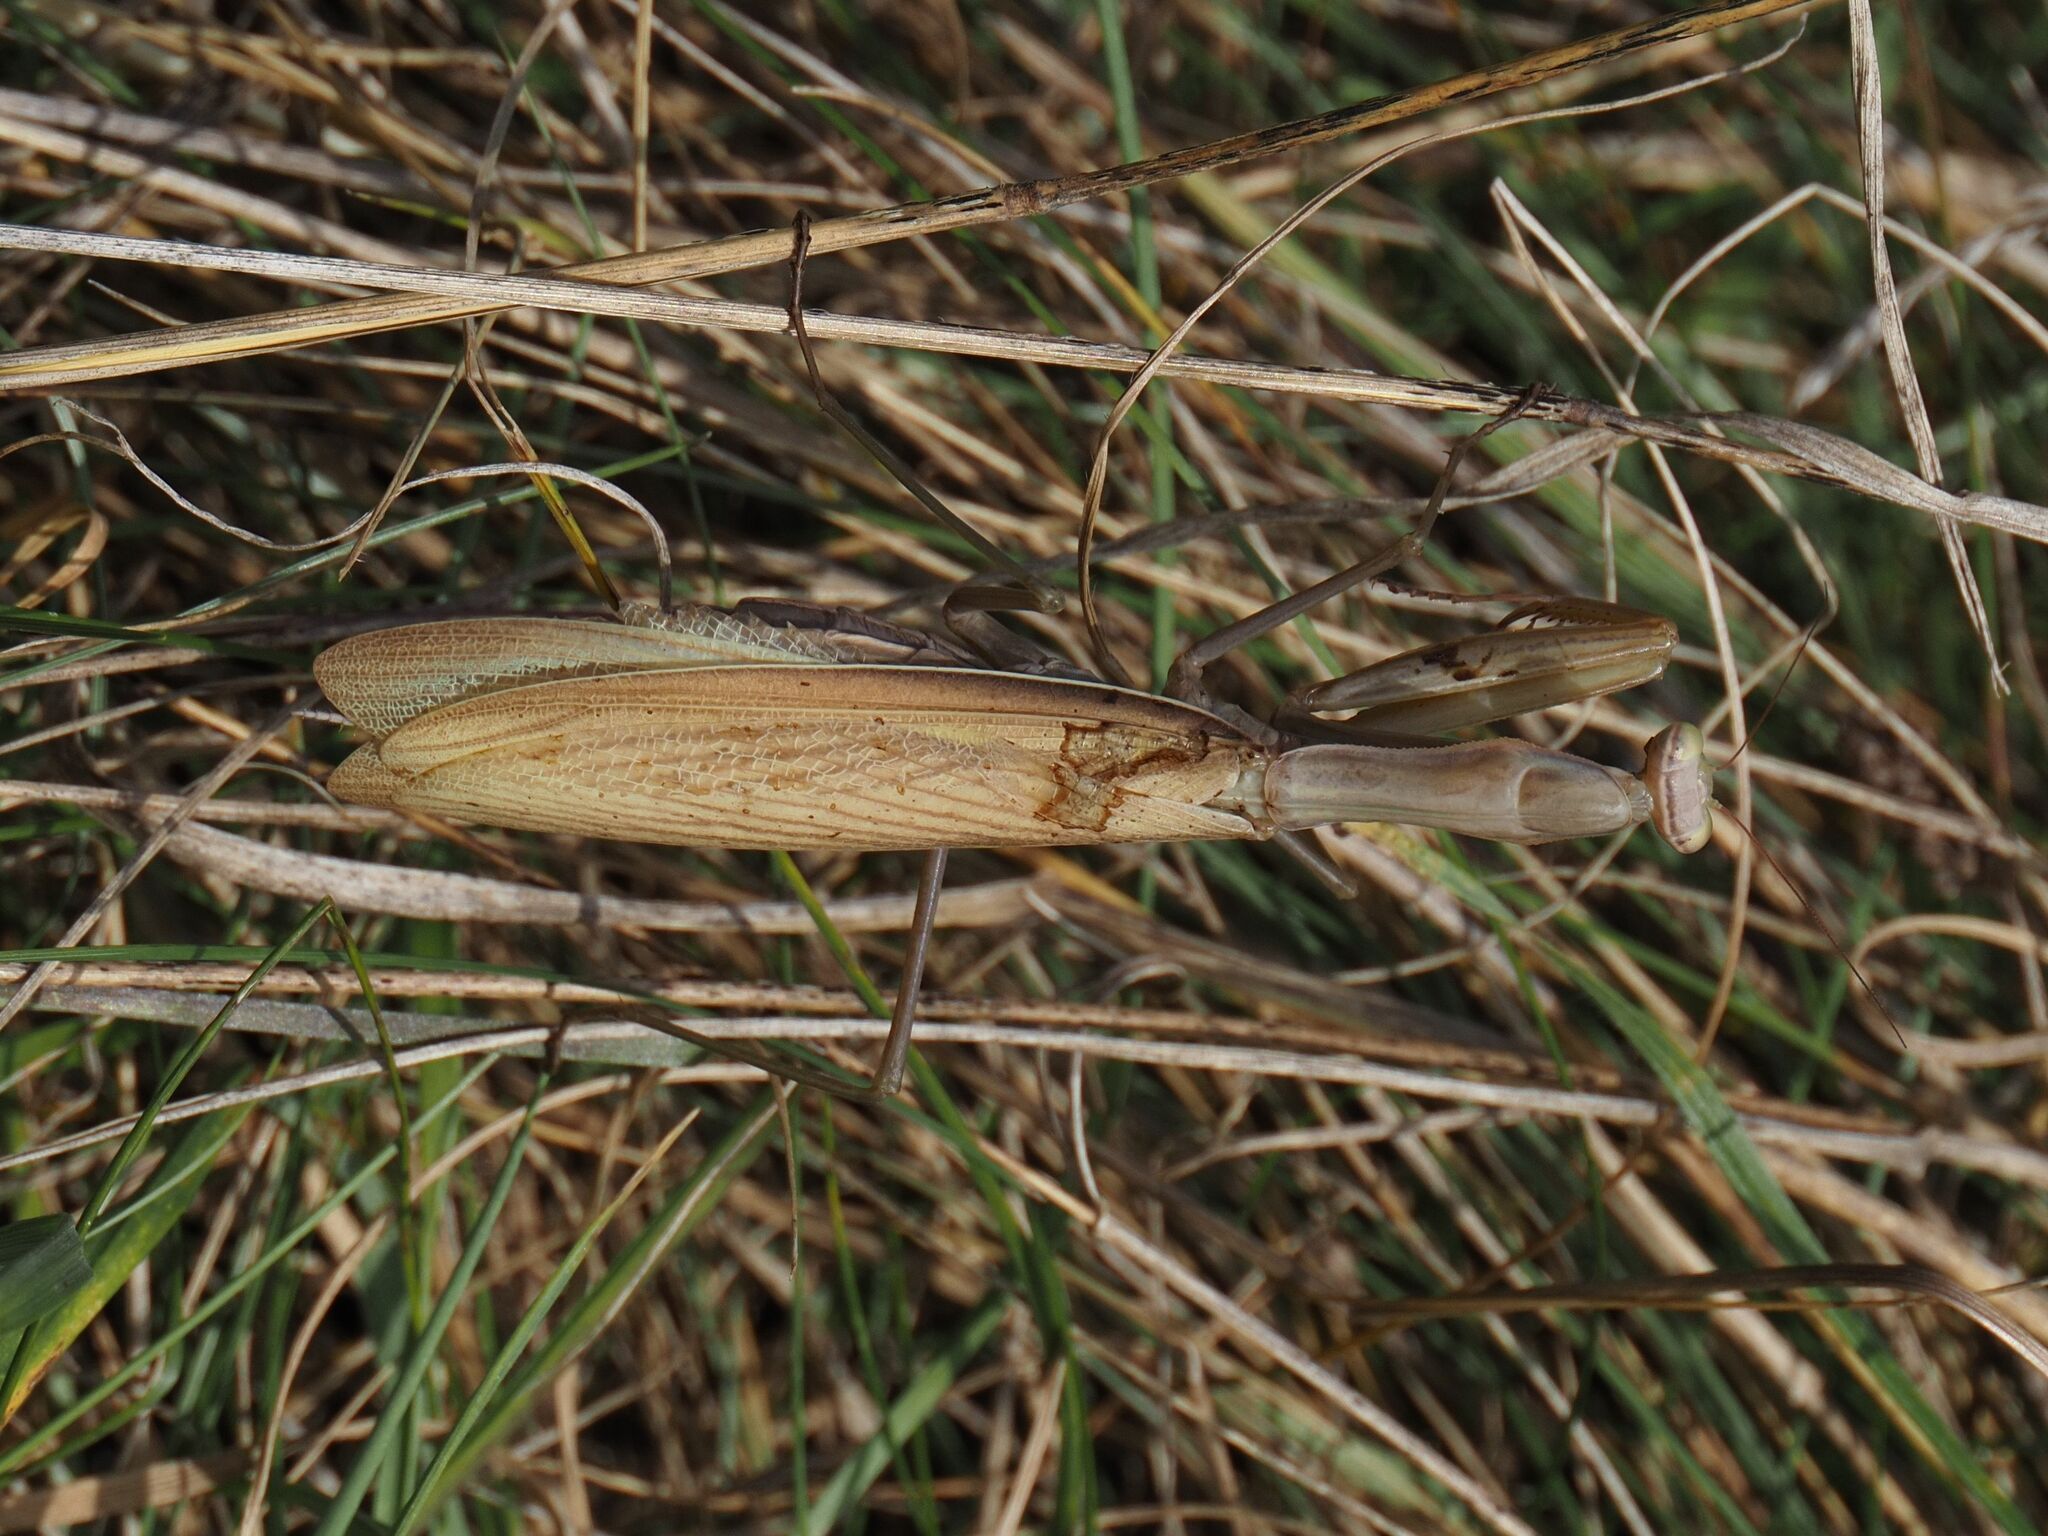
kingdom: Animalia
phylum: Arthropoda
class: Insecta
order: Mantodea
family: Mantidae
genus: Mantis
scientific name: Mantis religiosa
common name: Praying mantis
